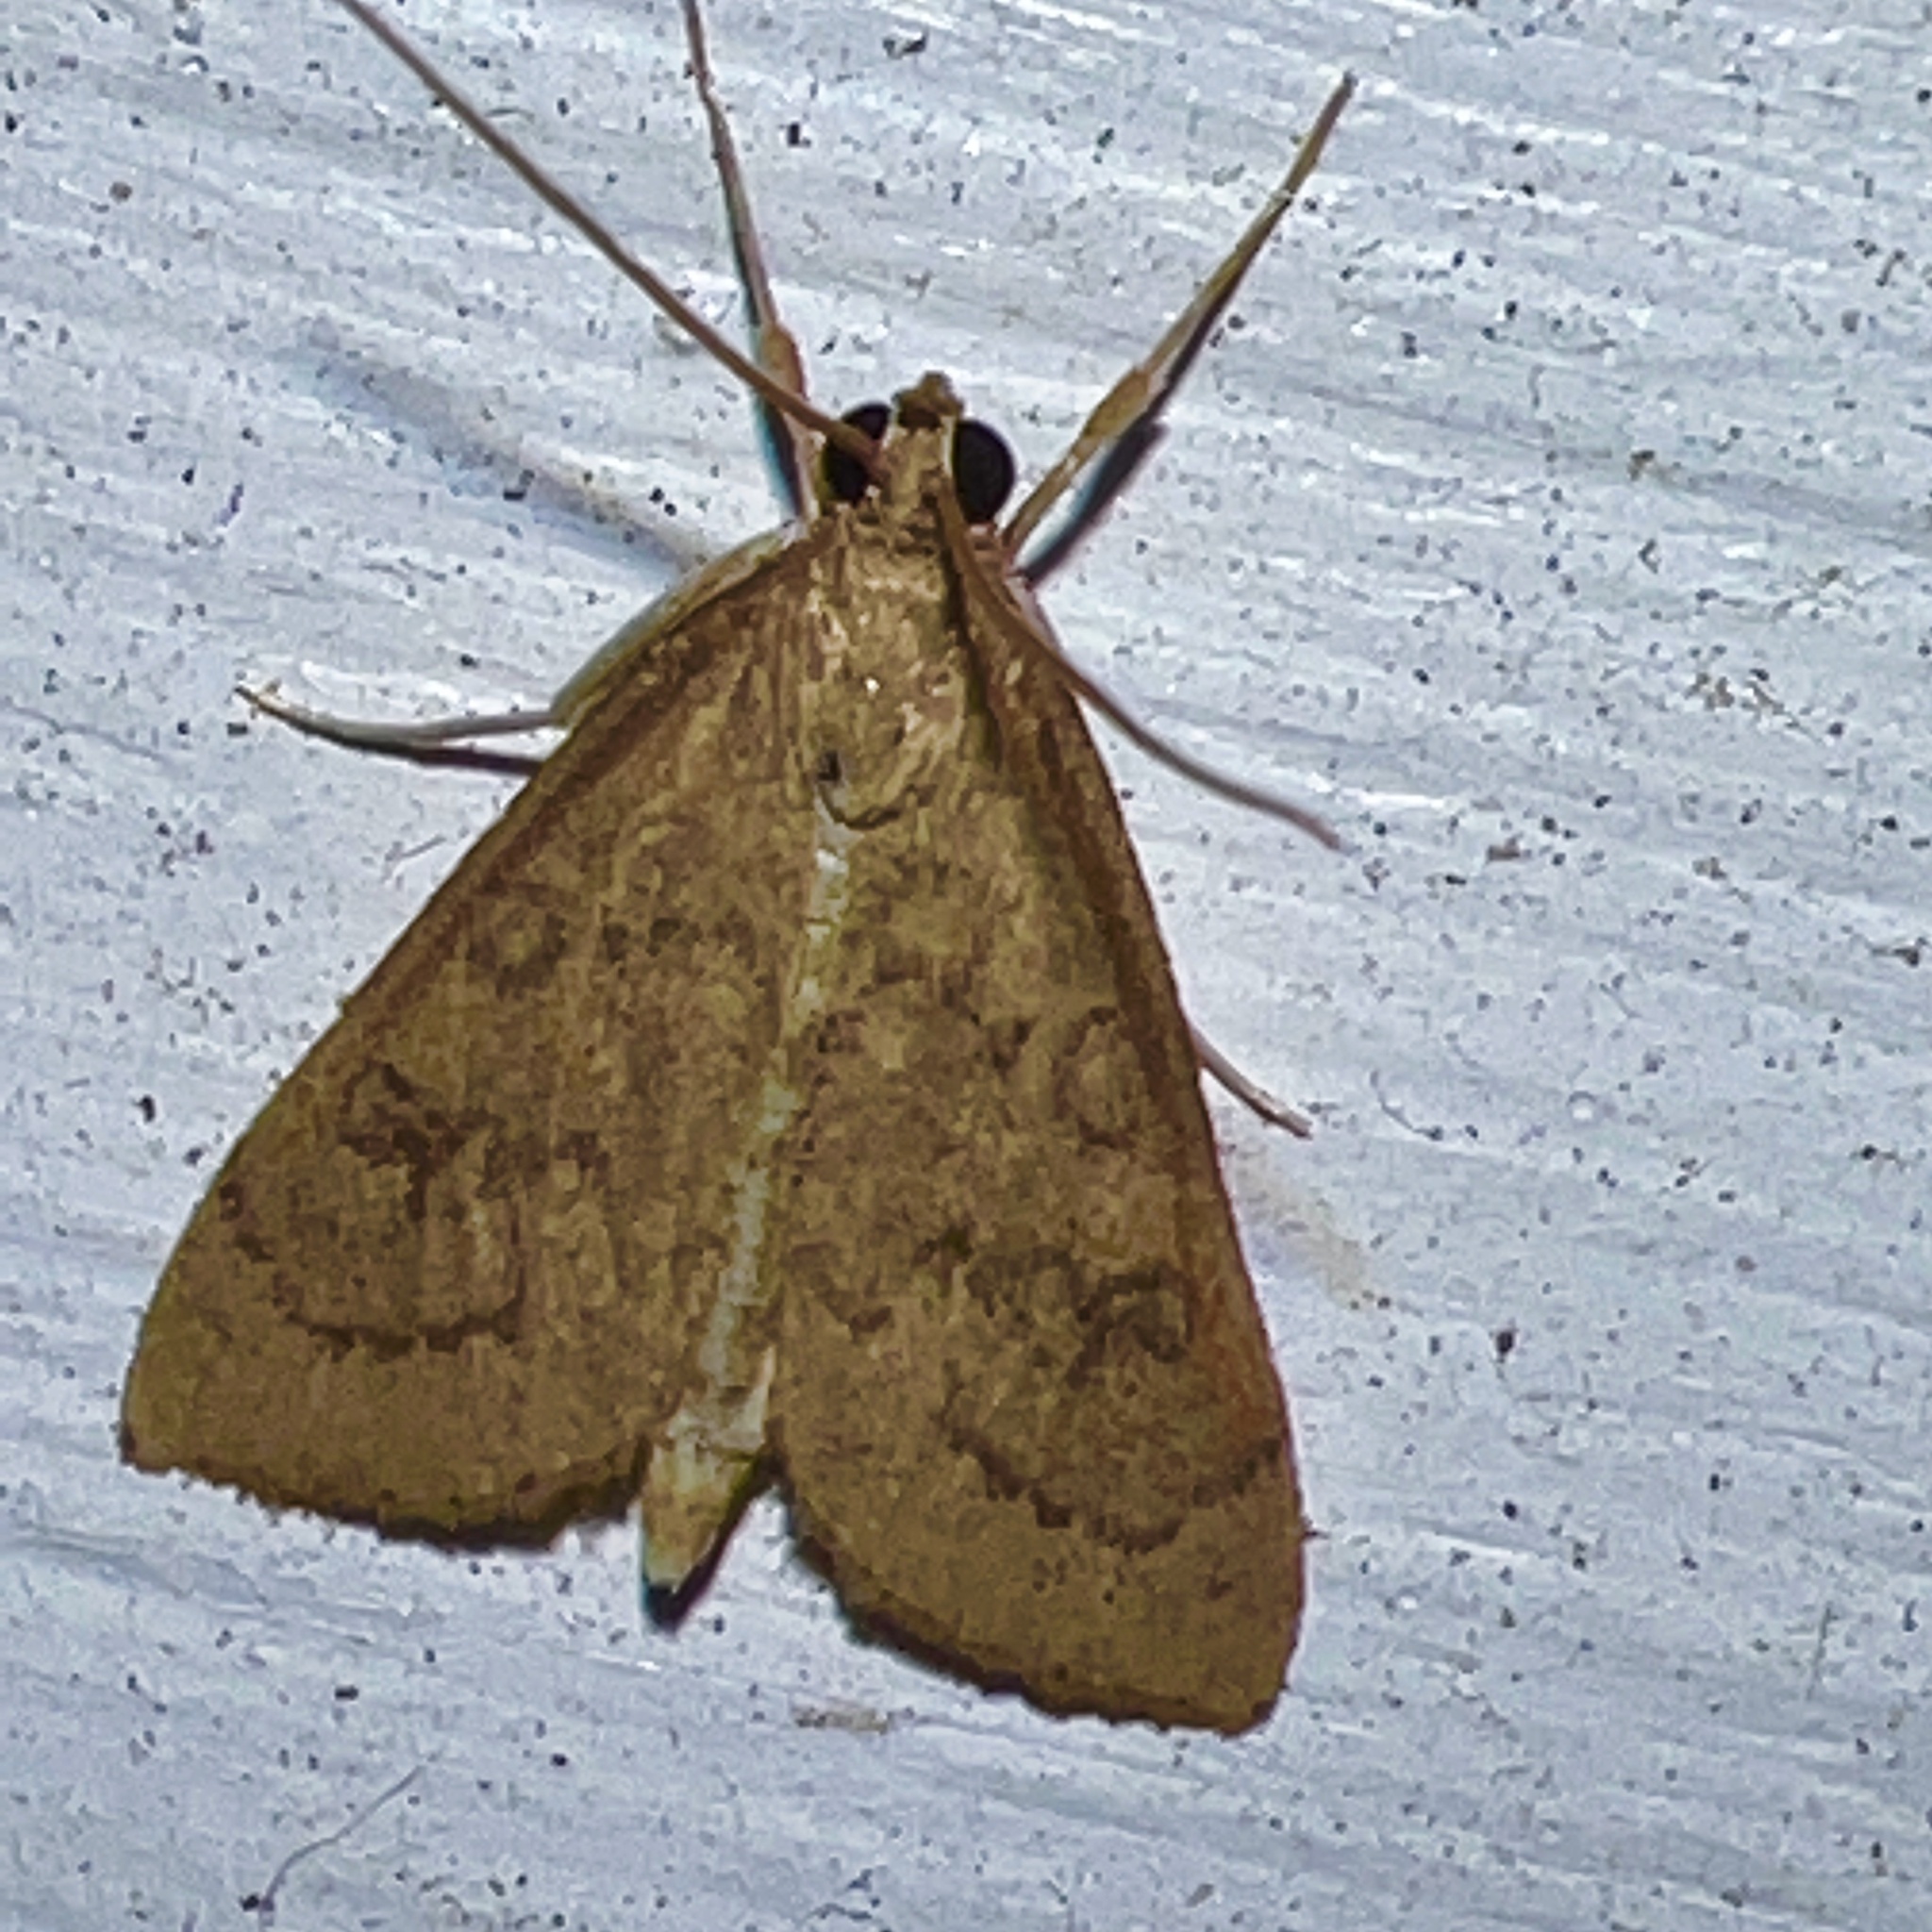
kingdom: Animalia
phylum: Arthropoda
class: Insecta
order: Lepidoptera
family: Crambidae
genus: Udea
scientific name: Udea rubigalis
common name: Celery leaftier moth
